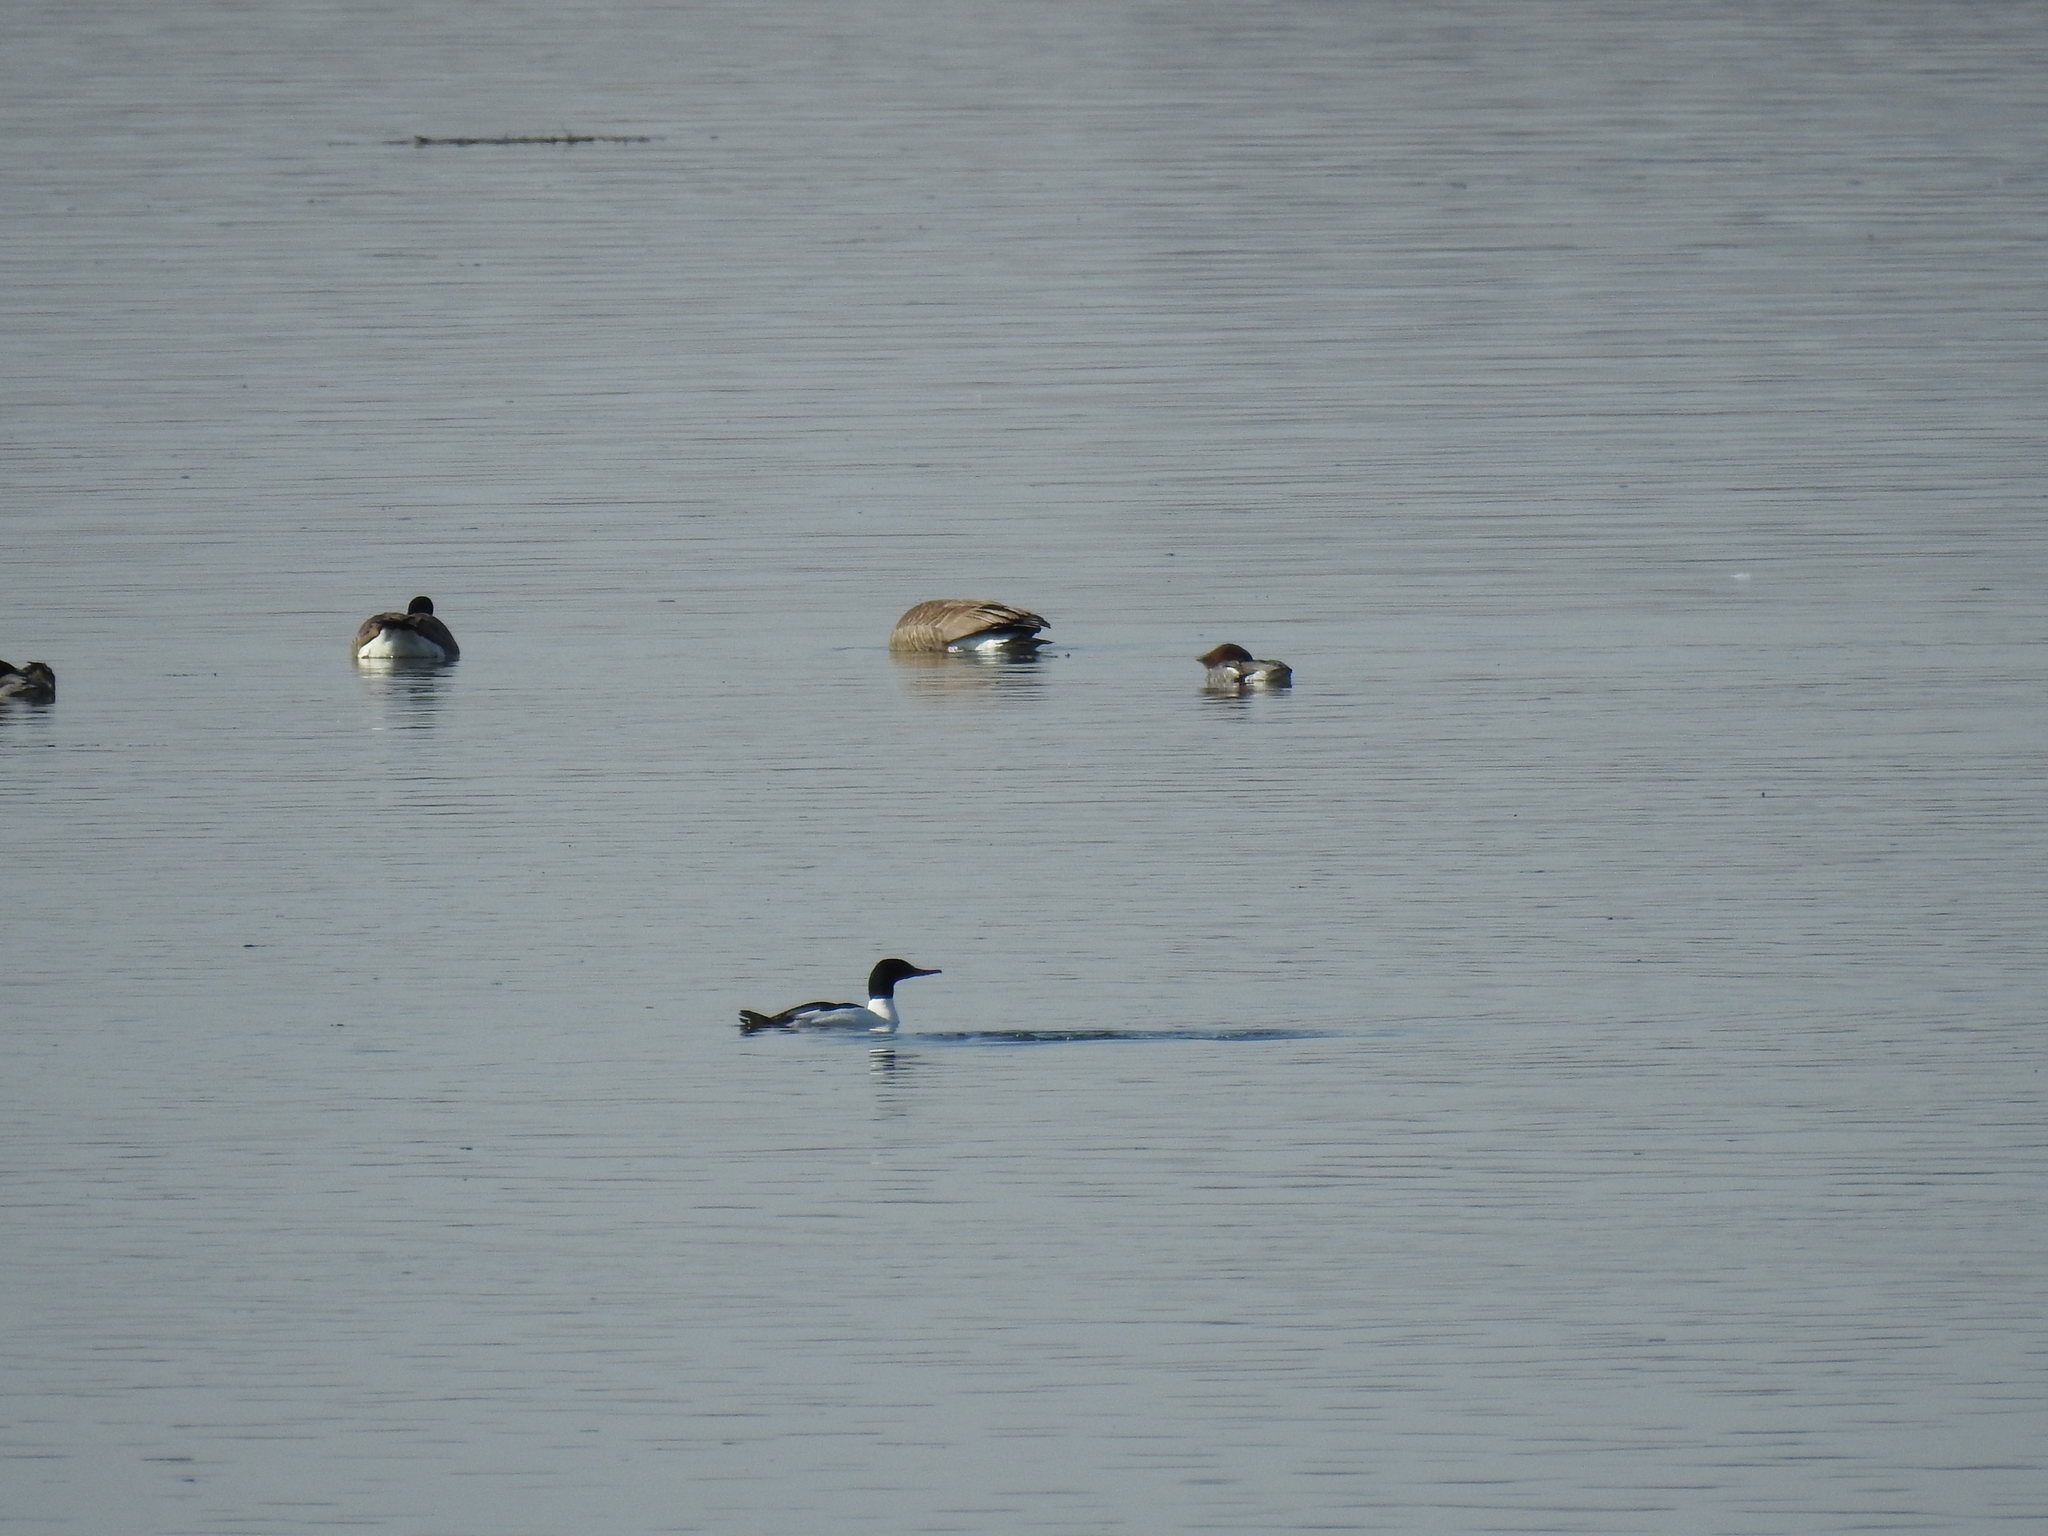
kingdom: Animalia
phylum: Chordata
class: Aves
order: Anseriformes
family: Anatidae
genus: Mergus
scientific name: Mergus merganser
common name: Common merganser
